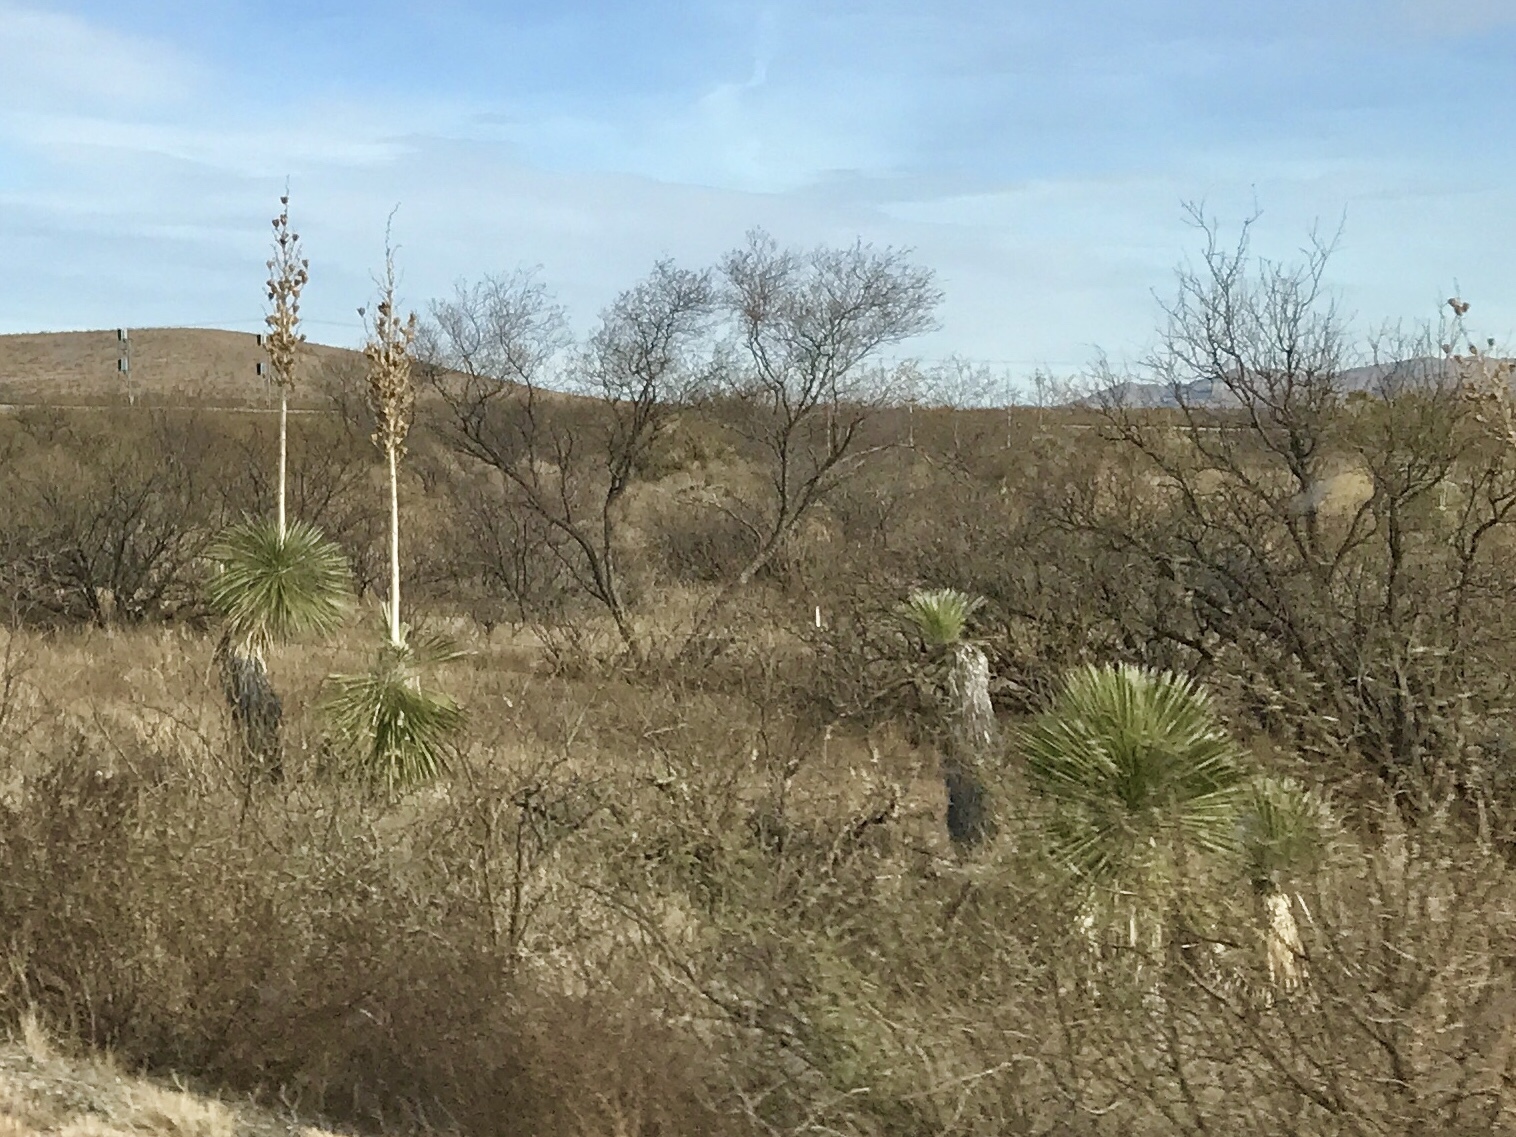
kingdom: Plantae
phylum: Tracheophyta
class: Liliopsida
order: Asparagales
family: Asparagaceae
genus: Yucca
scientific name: Yucca elata
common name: Palmella
